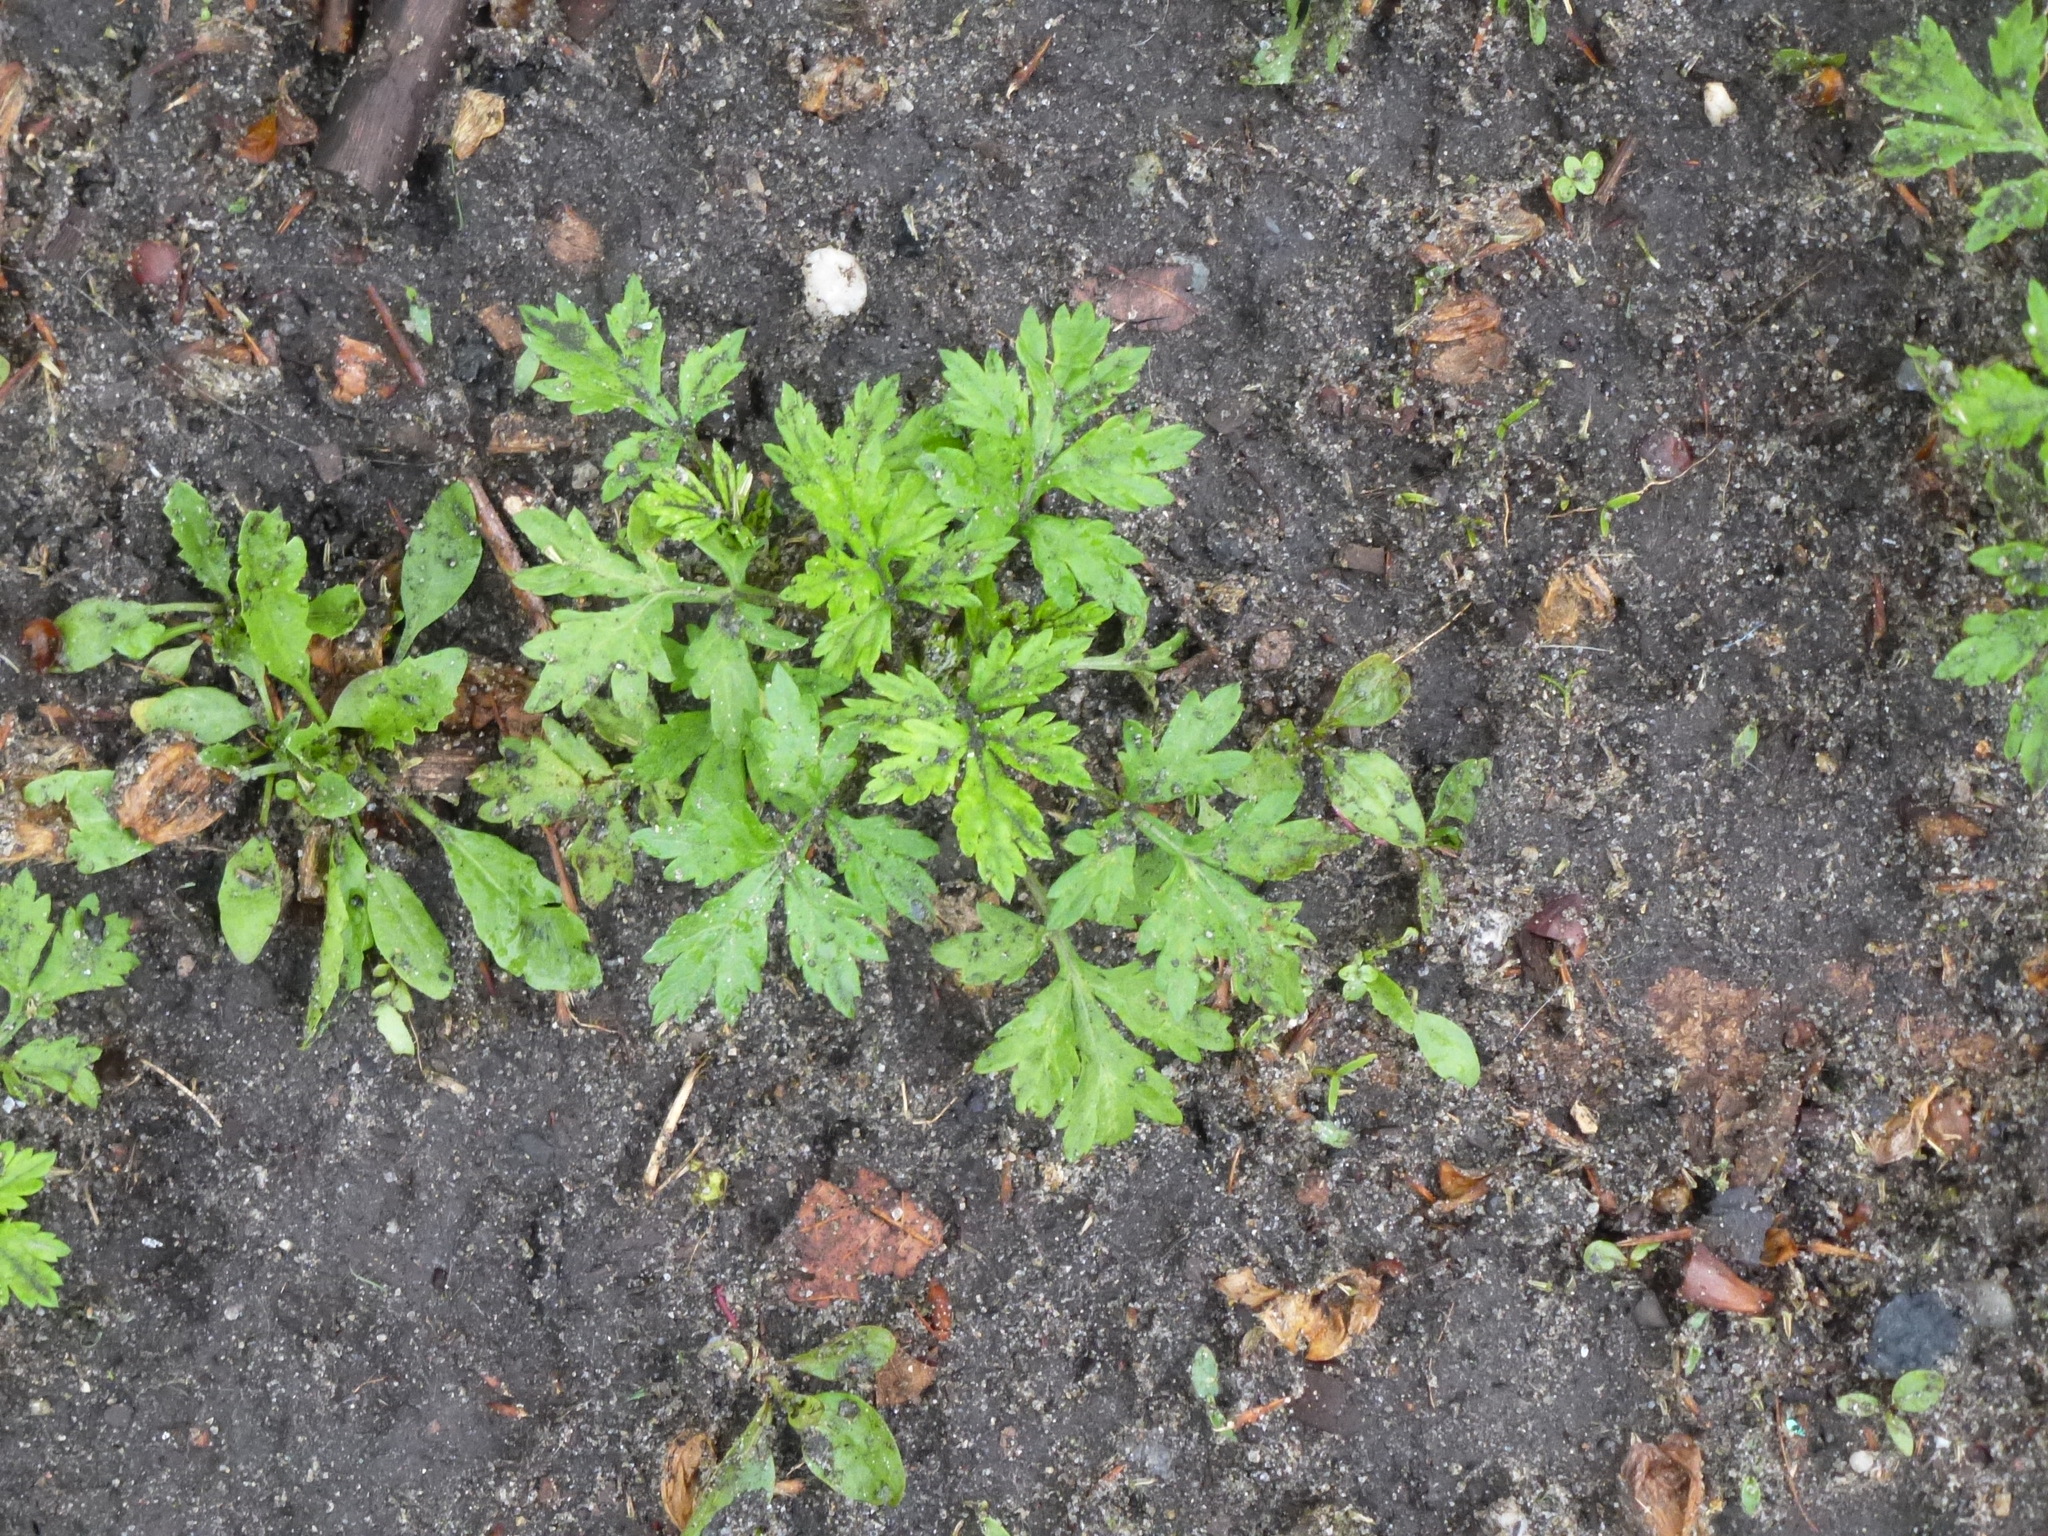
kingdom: Plantae
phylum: Tracheophyta
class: Magnoliopsida
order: Asterales
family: Asteraceae
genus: Artemisia
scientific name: Artemisia vulgaris
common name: Mugwort
